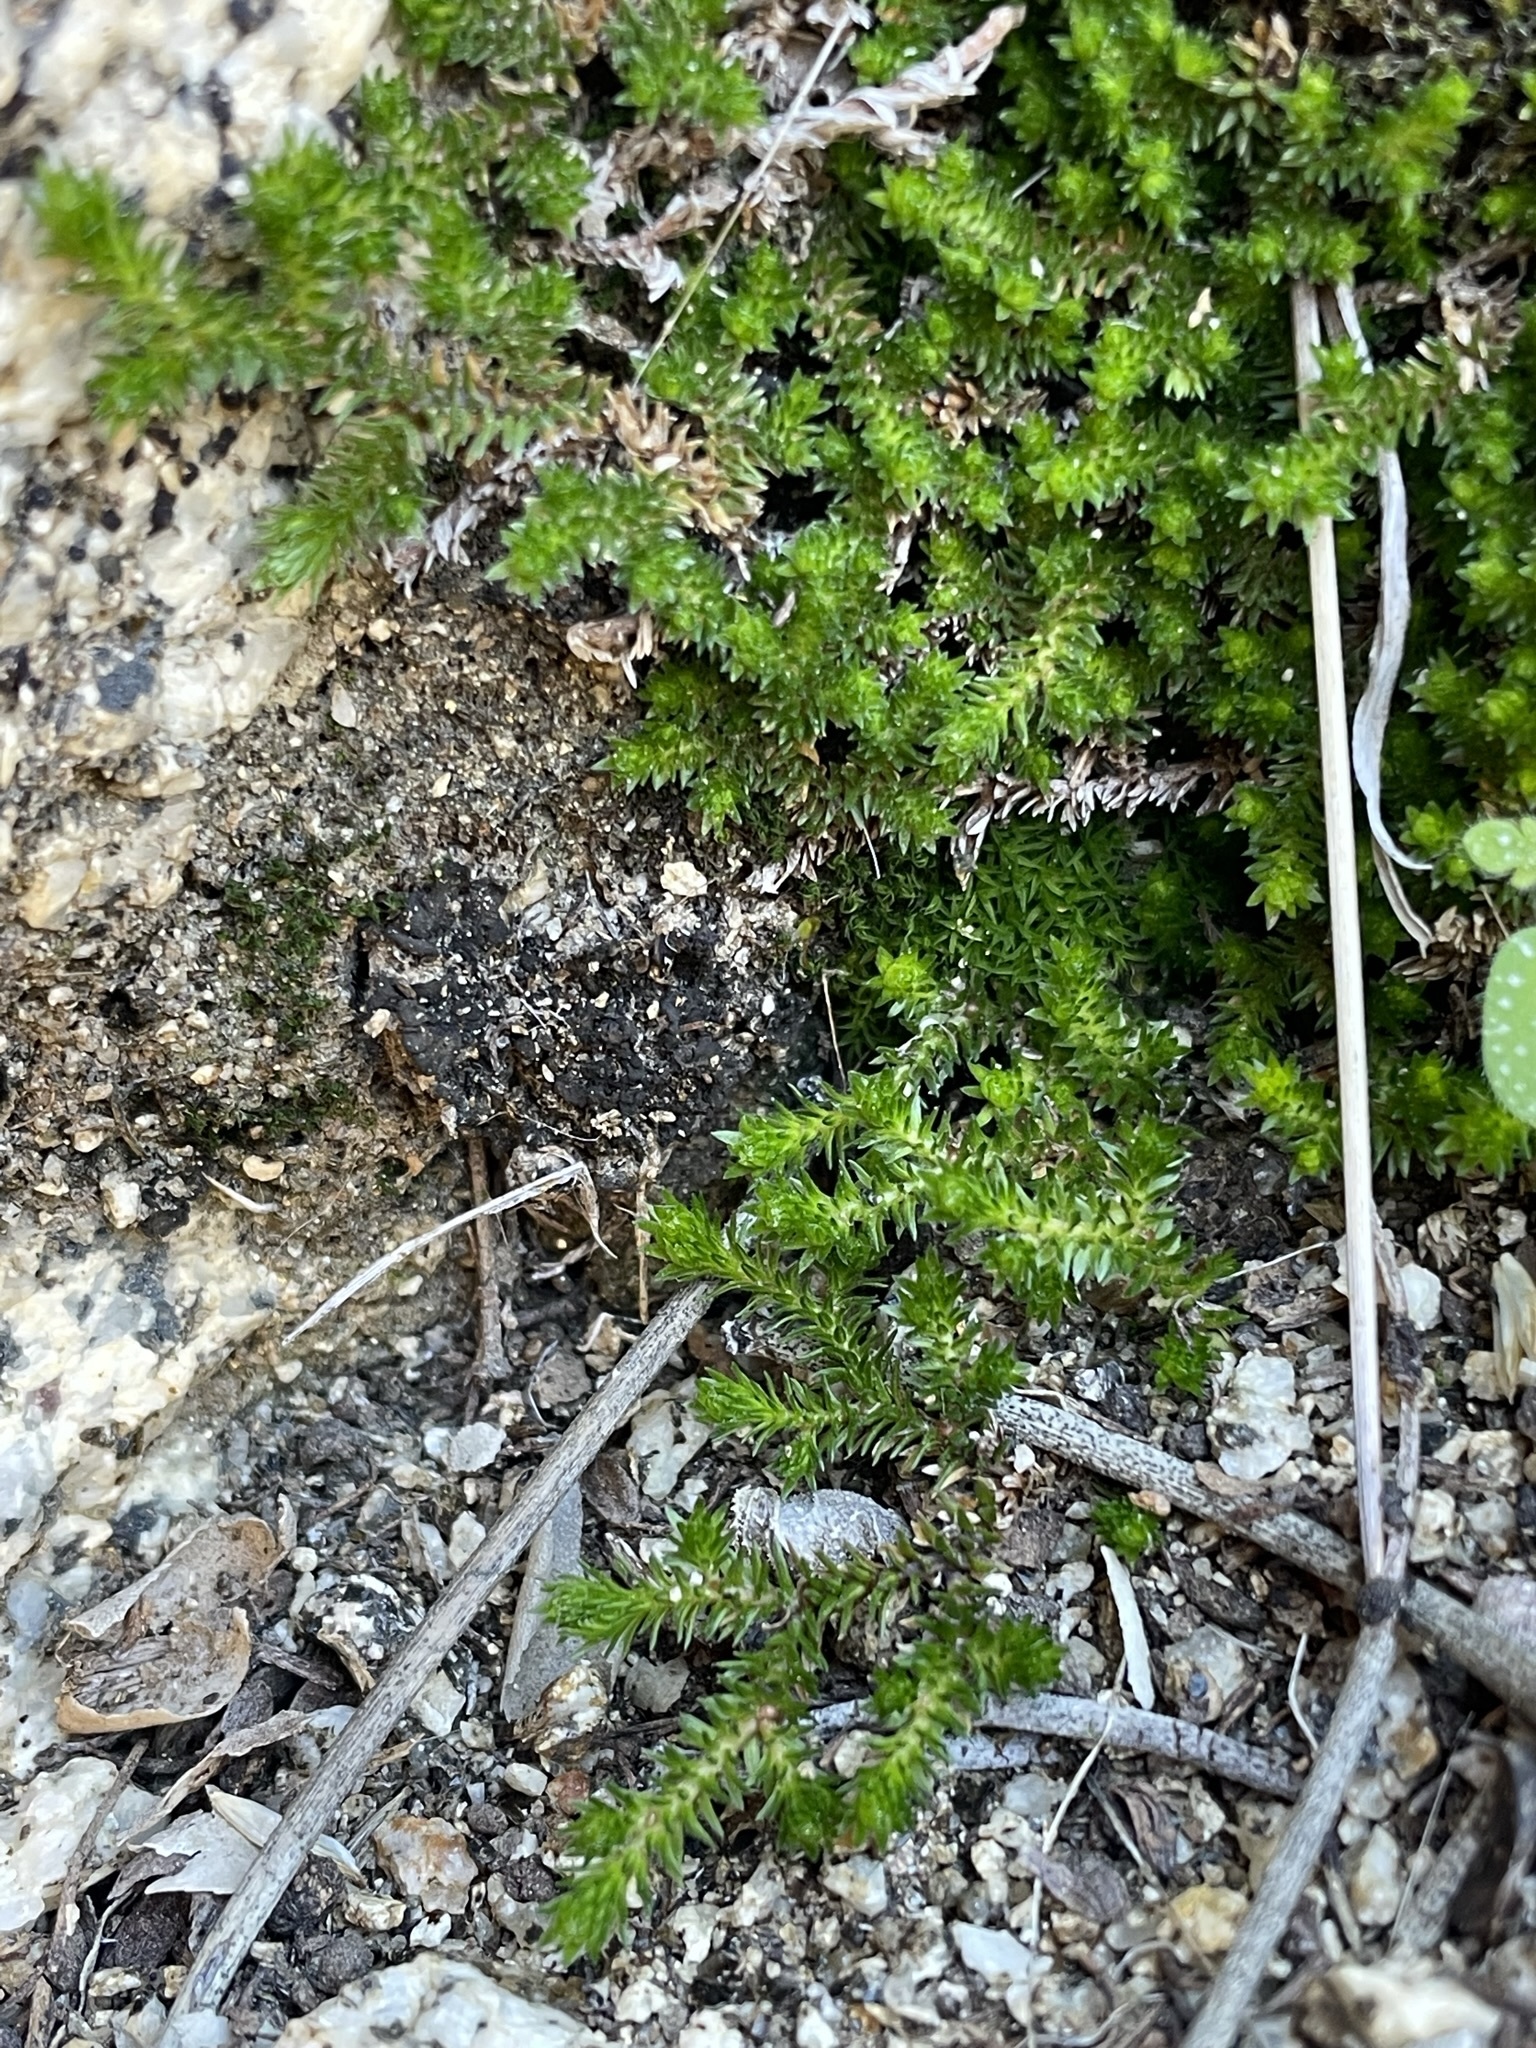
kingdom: Plantae
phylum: Tracheophyta
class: Lycopodiopsida
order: Selaginellales
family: Selaginellaceae
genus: Selaginella
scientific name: Selaginella eremophila
